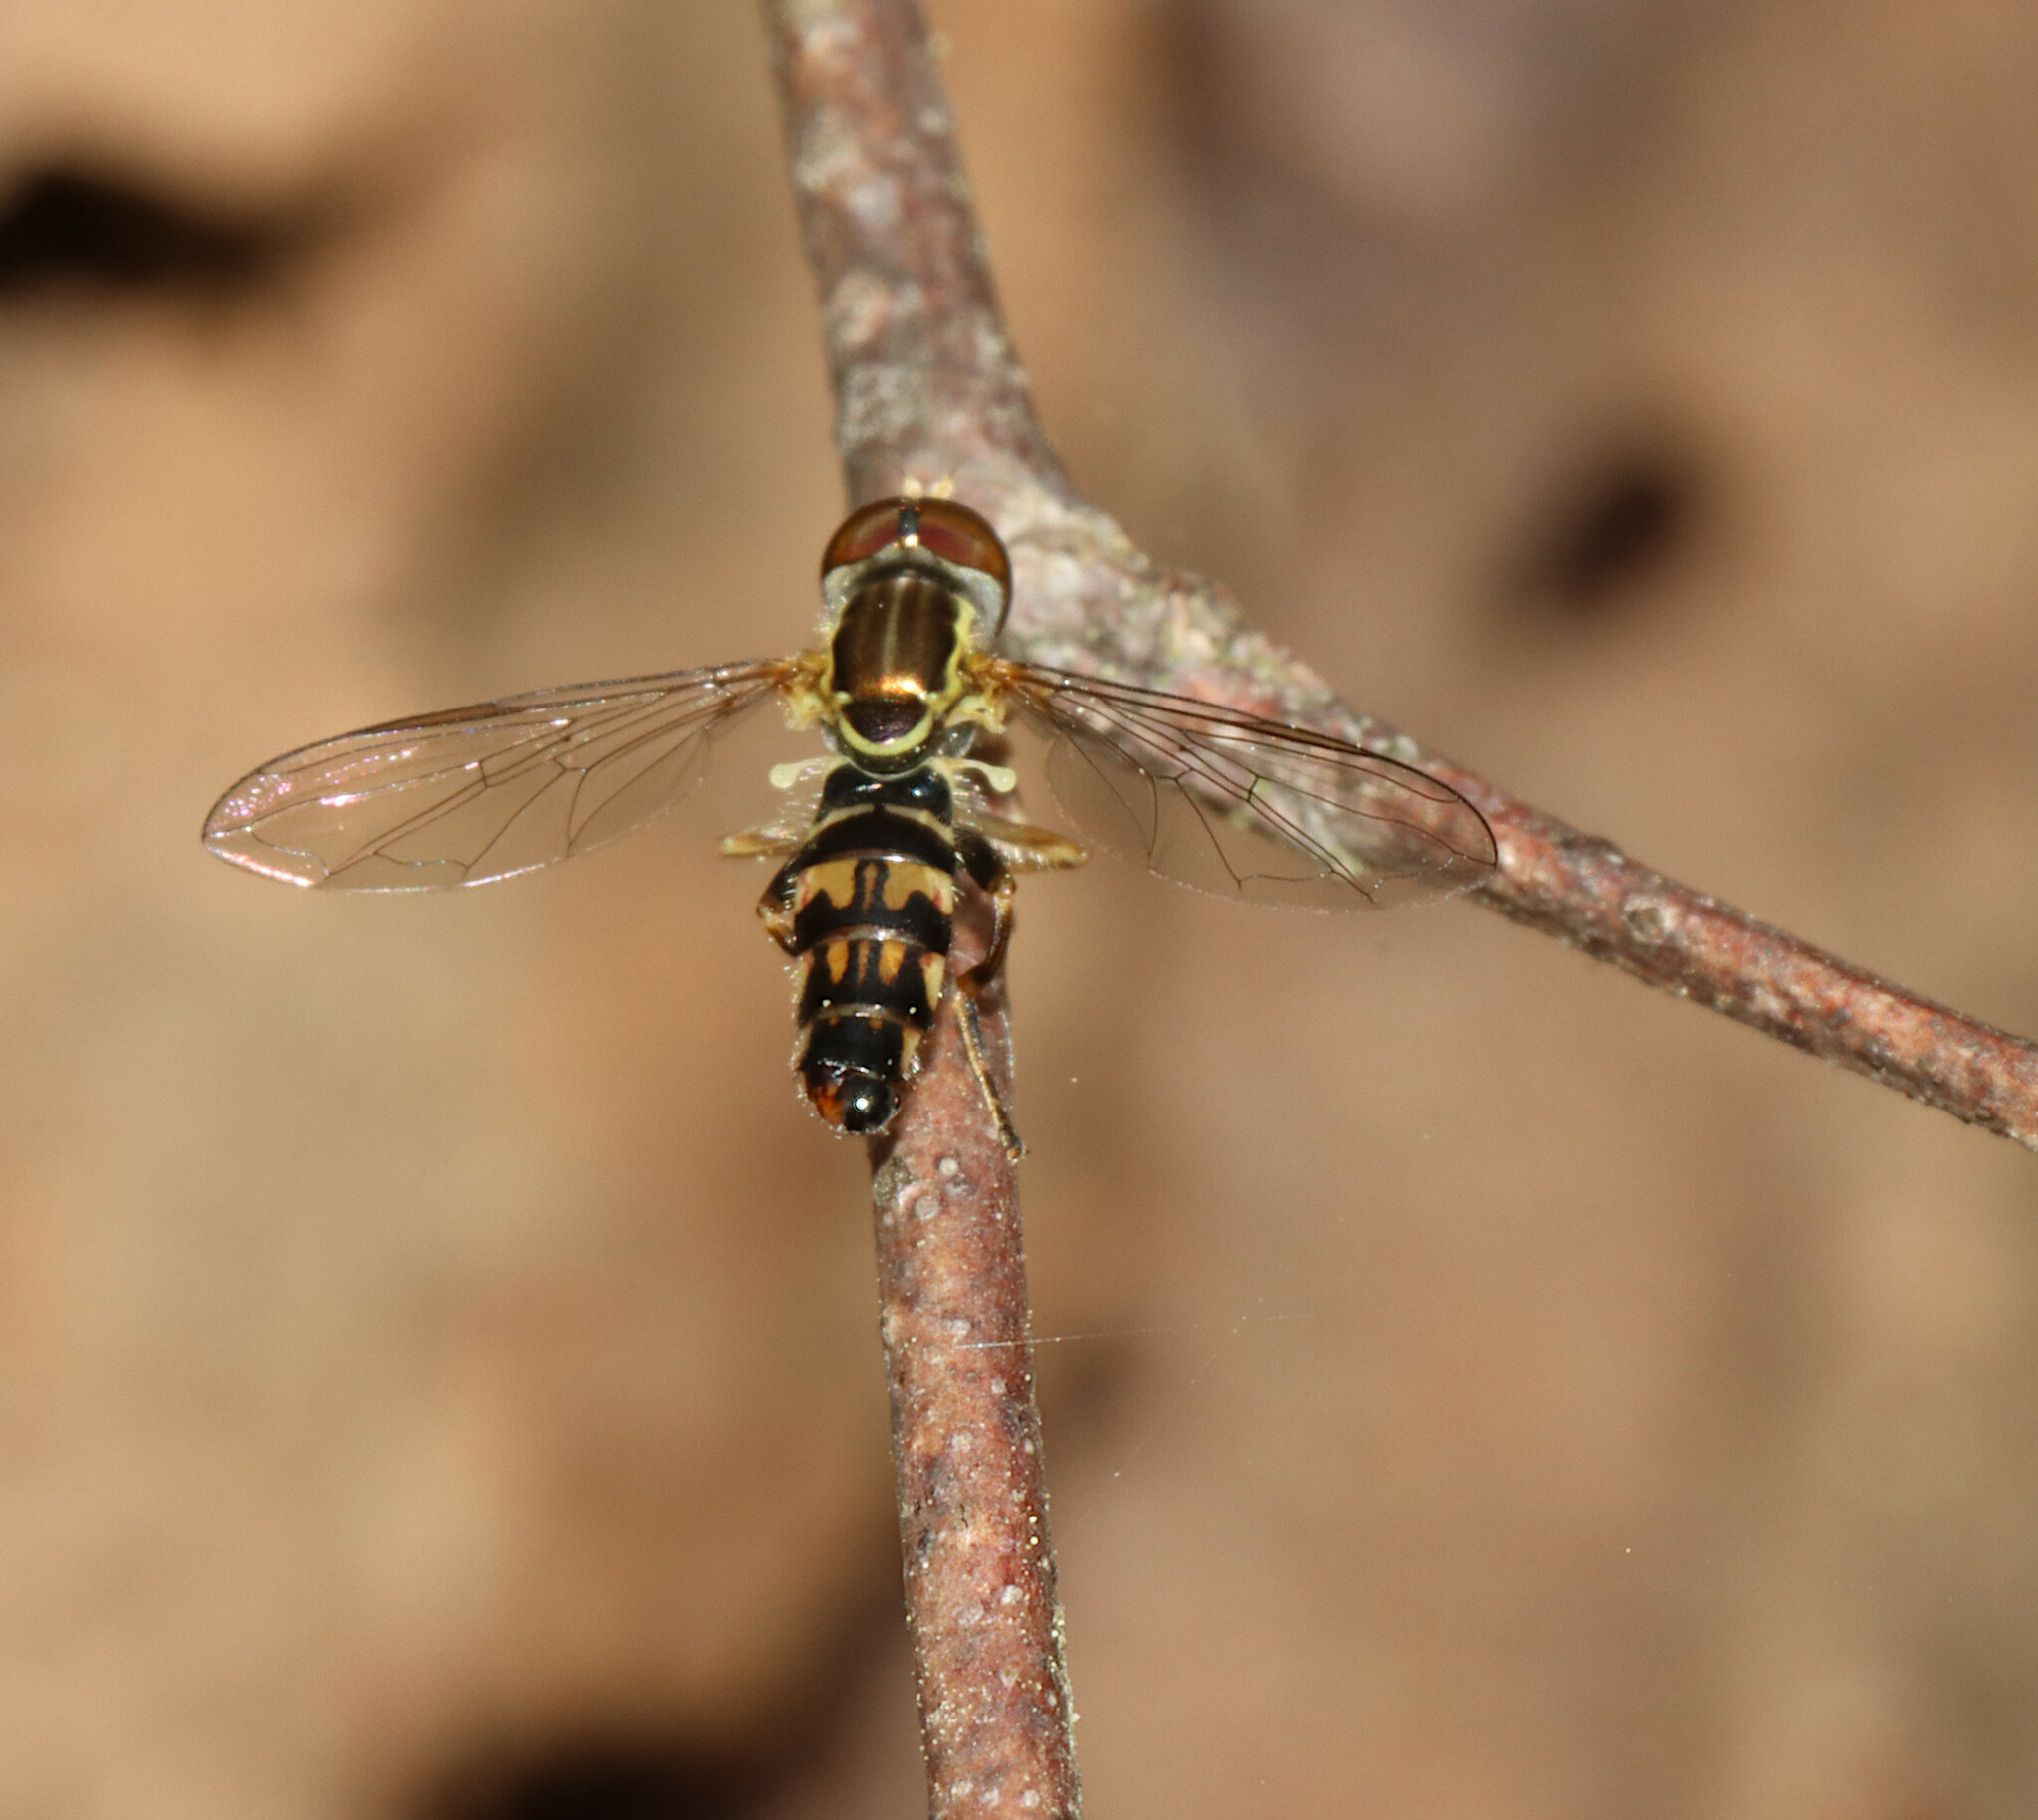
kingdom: Animalia
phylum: Arthropoda
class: Insecta
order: Diptera
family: Syrphidae
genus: Toxomerus
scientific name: Toxomerus geminatus
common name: Eastern calligrapher
